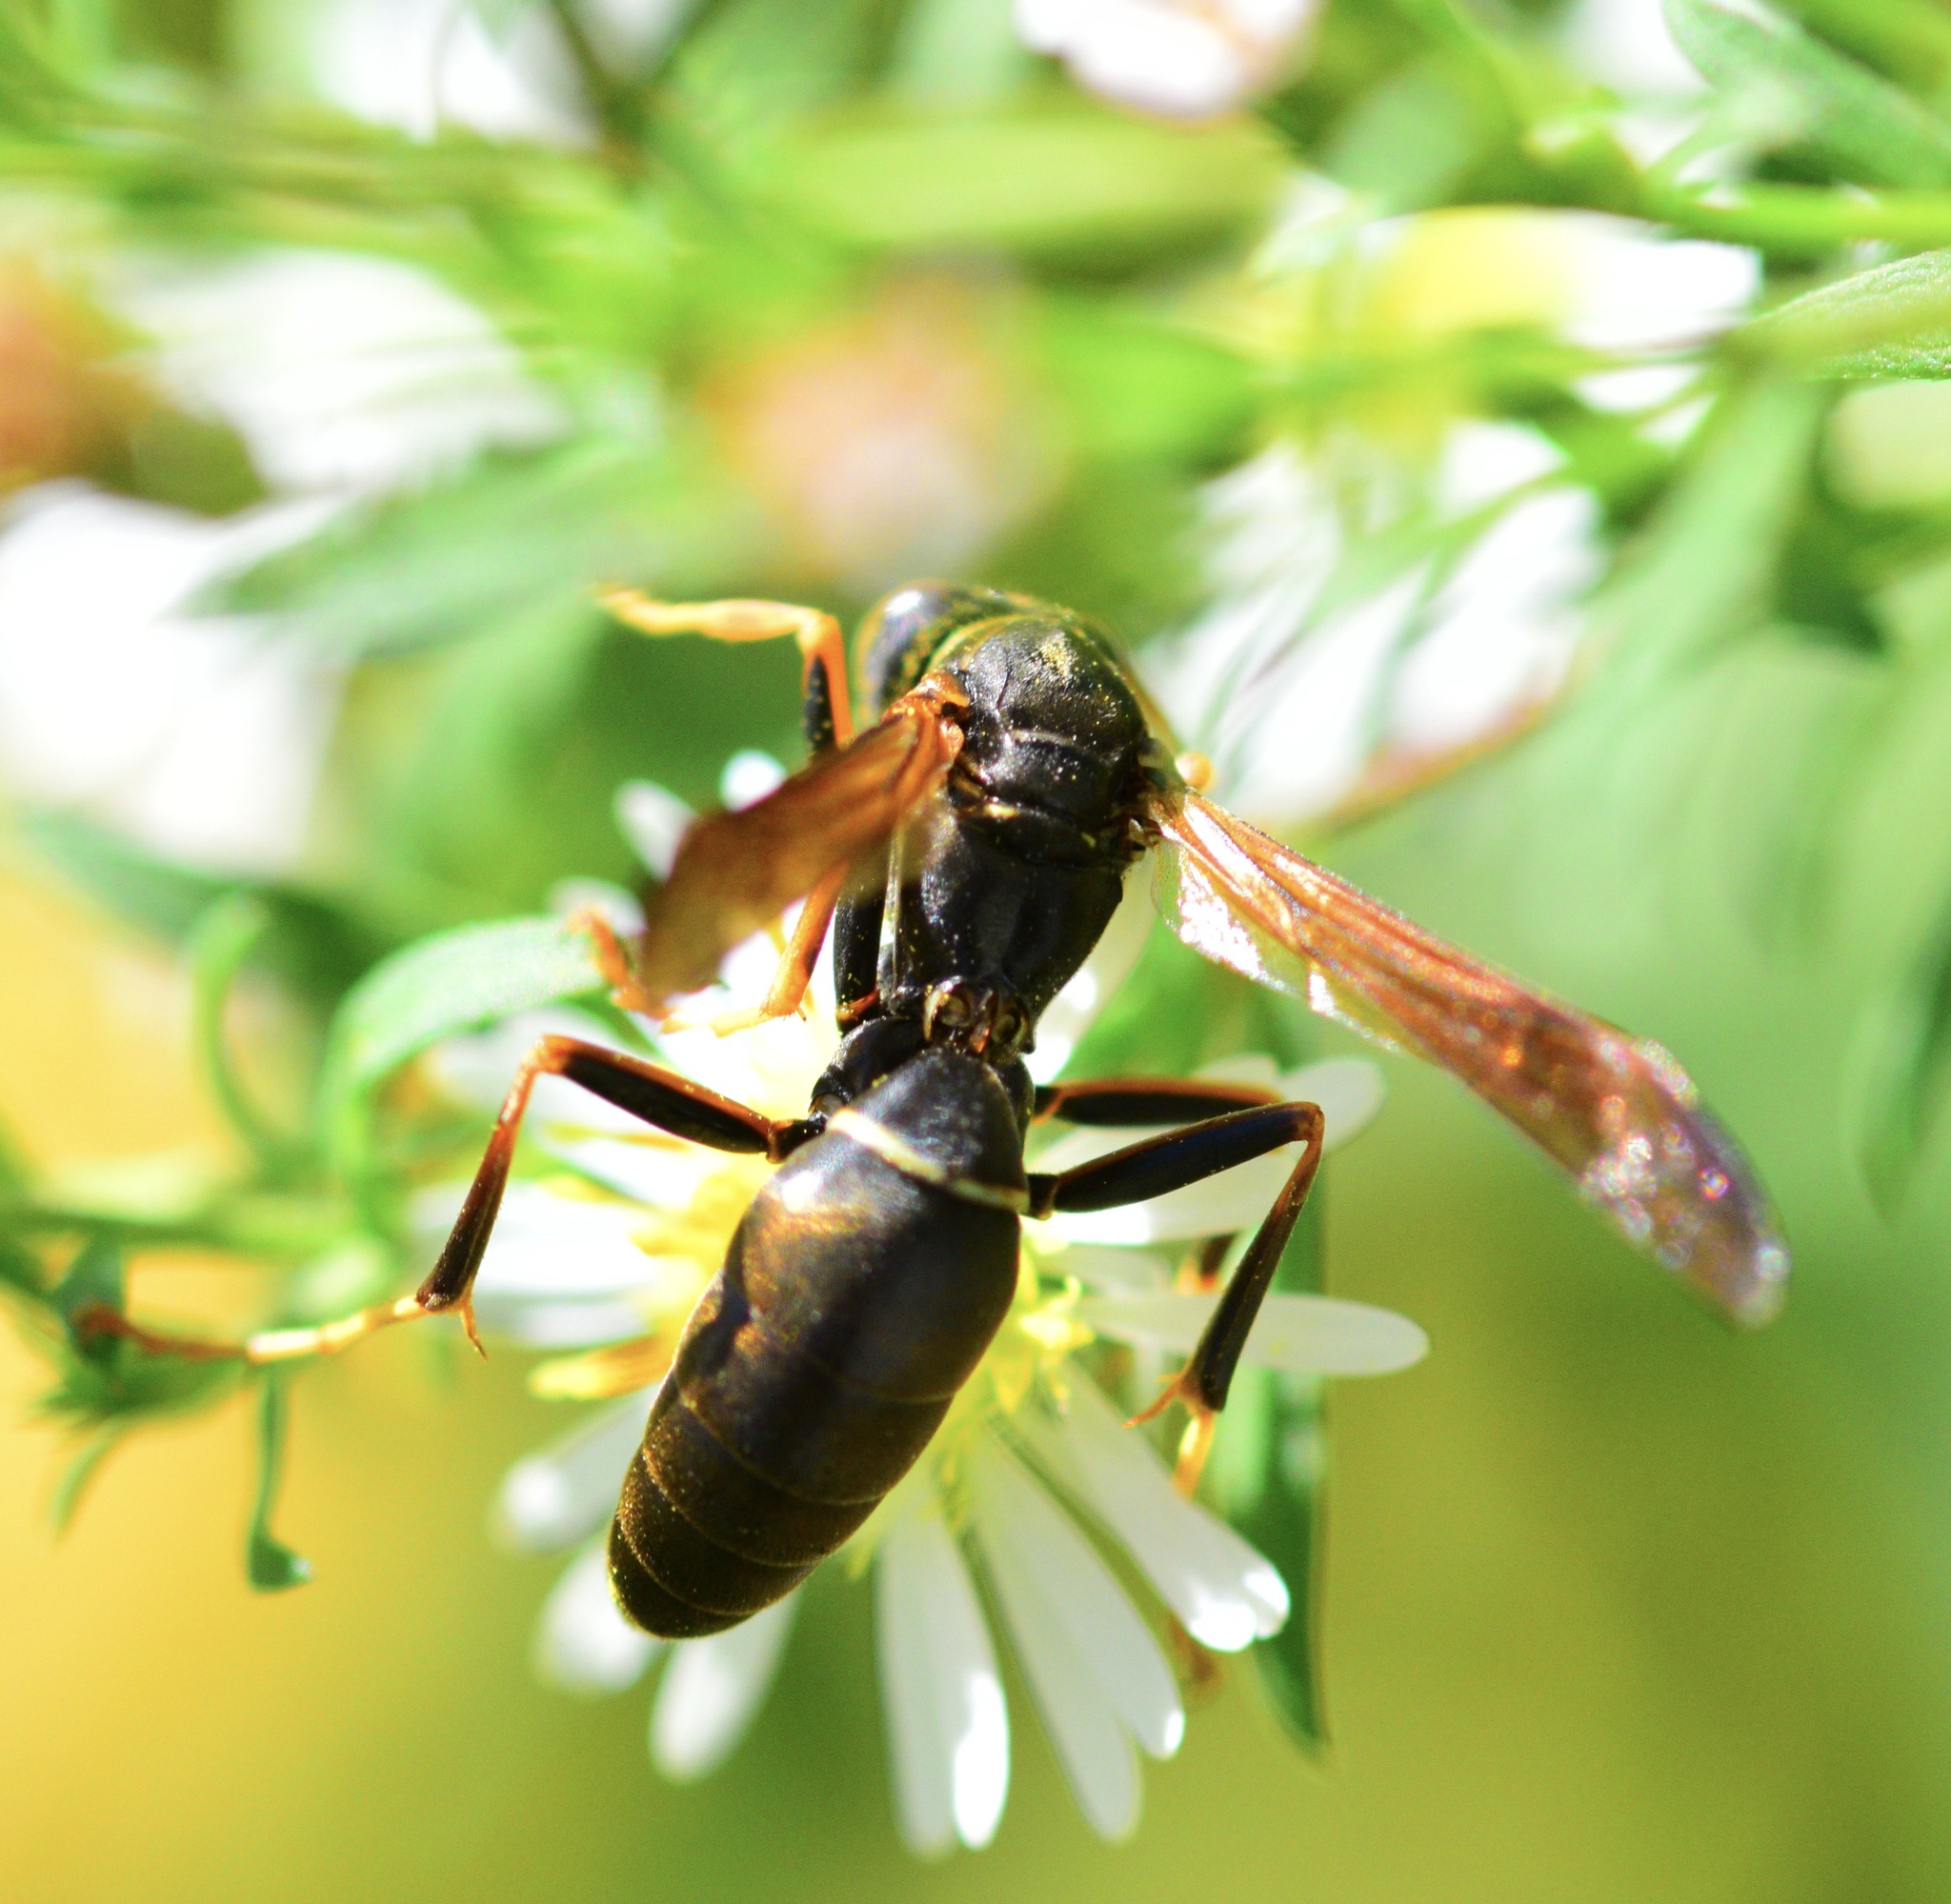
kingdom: Animalia
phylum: Arthropoda
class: Insecta
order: Hymenoptera
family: Eumenidae
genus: Polistes
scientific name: Polistes fuscatus
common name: Dark paper wasp
